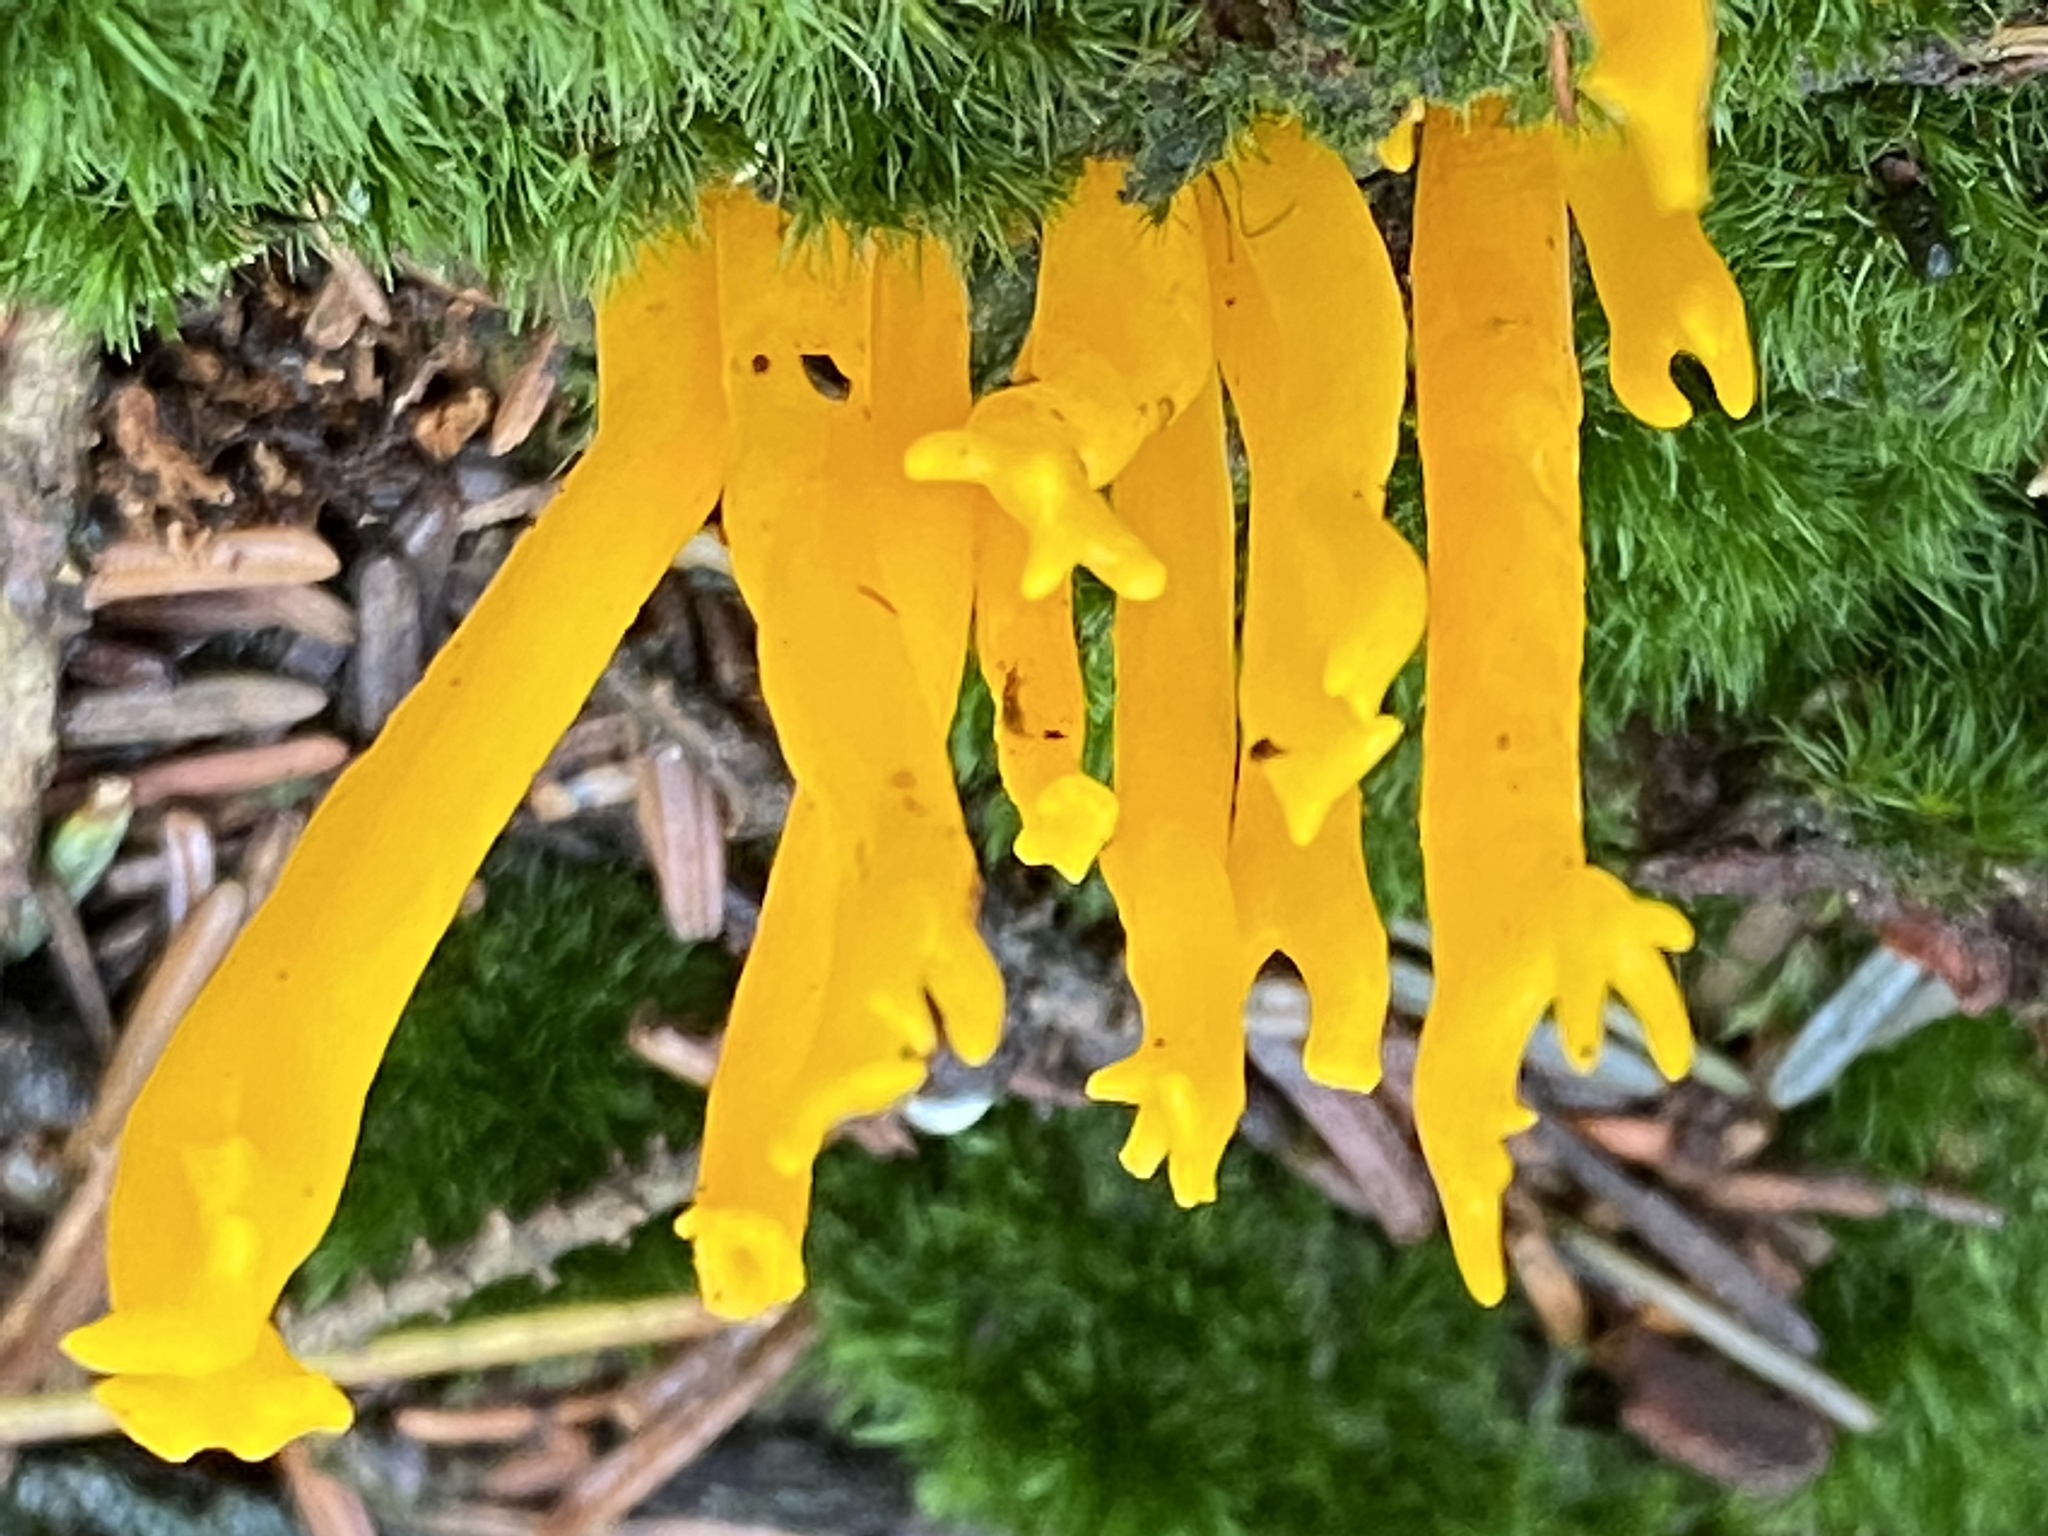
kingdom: Fungi
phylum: Basidiomycota
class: Dacrymycetes
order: Dacrymycetales
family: Dacrymycetaceae
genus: Calocera
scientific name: Calocera viscosa
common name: Yellow stagshorn
